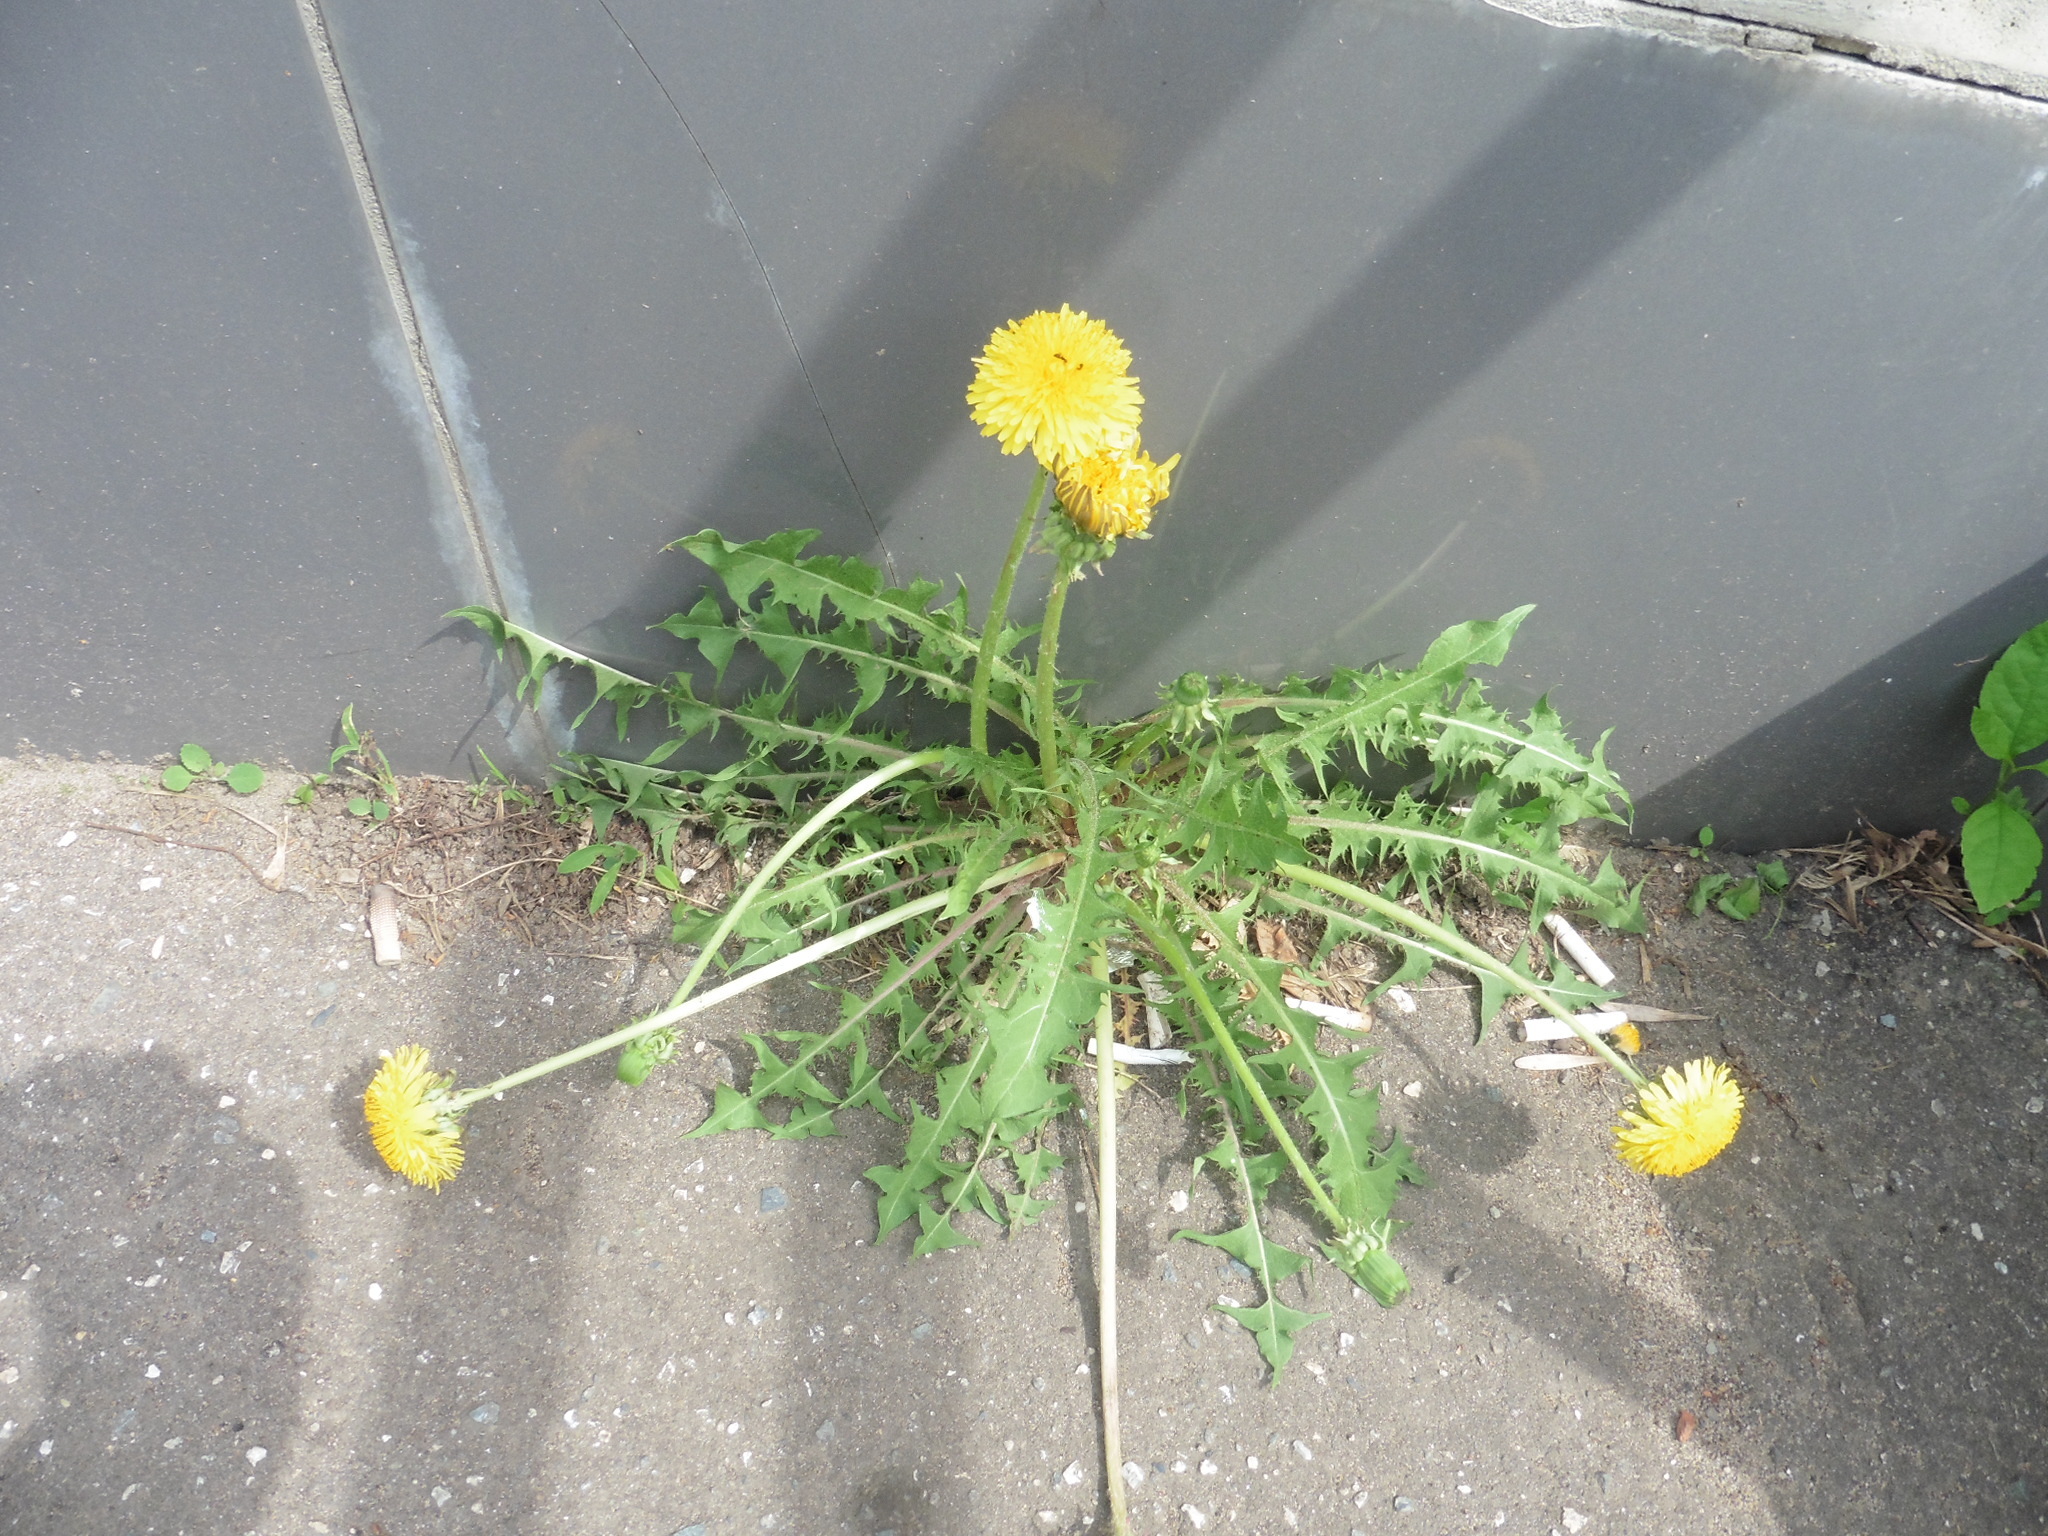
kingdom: Plantae
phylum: Tracheophyta
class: Magnoliopsida
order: Asterales
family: Asteraceae
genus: Taraxacum
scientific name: Taraxacum officinale
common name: Common dandelion
